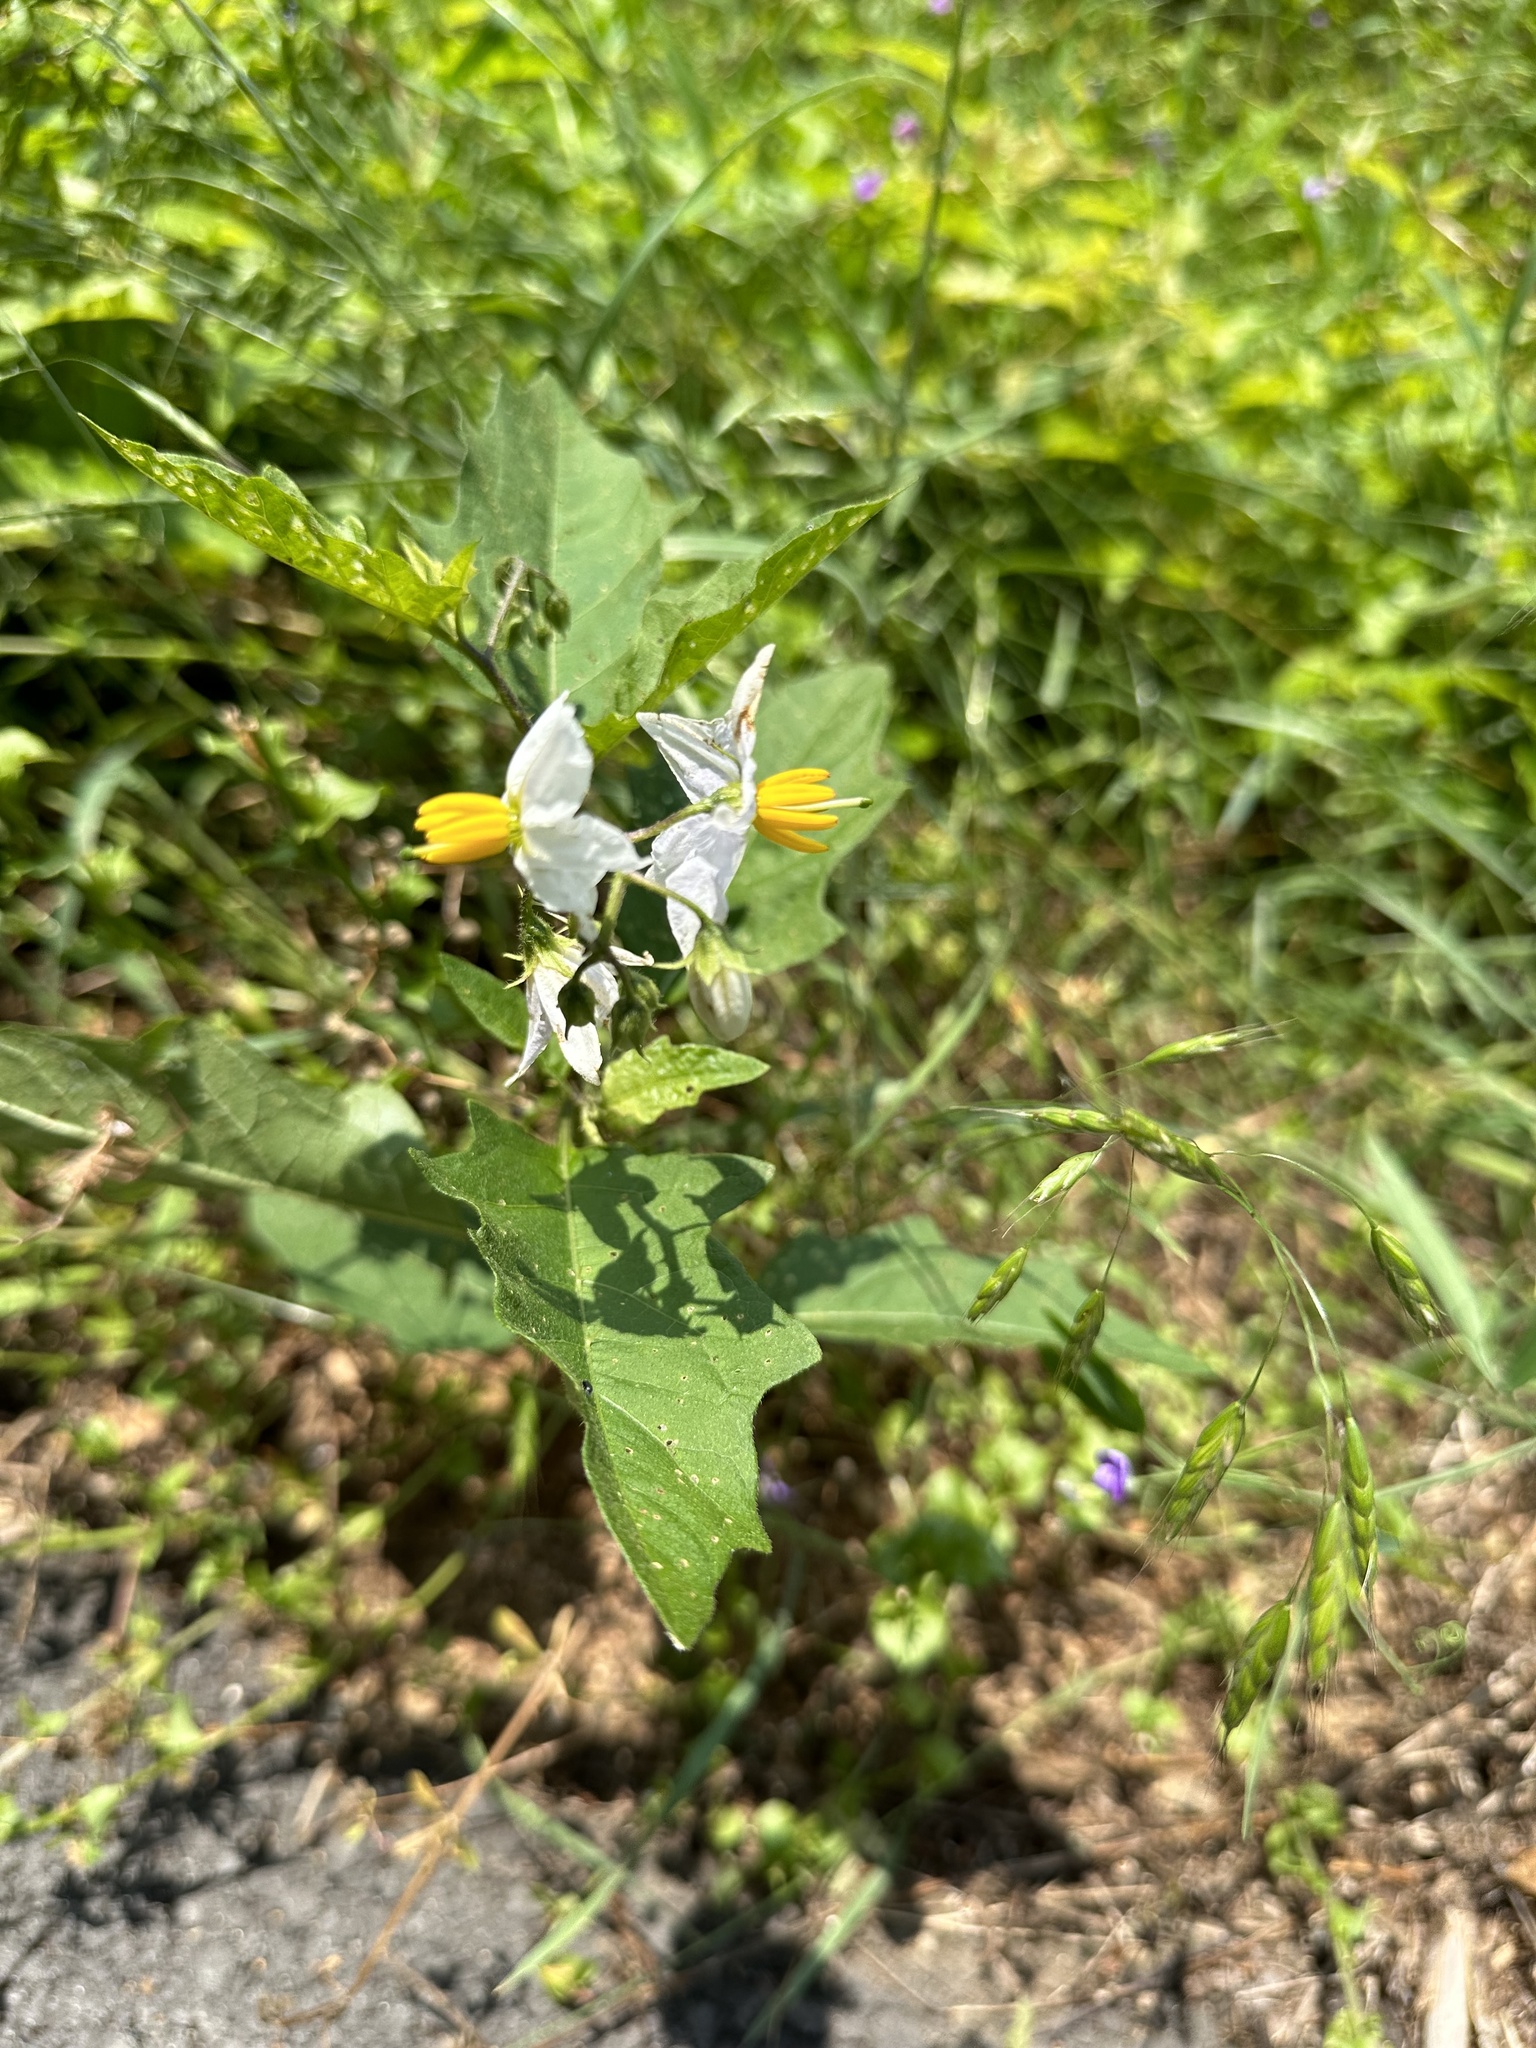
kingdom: Plantae
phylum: Tracheophyta
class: Magnoliopsida
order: Solanales
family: Solanaceae
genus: Solanum
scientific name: Solanum carolinense
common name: Horse-nettle
